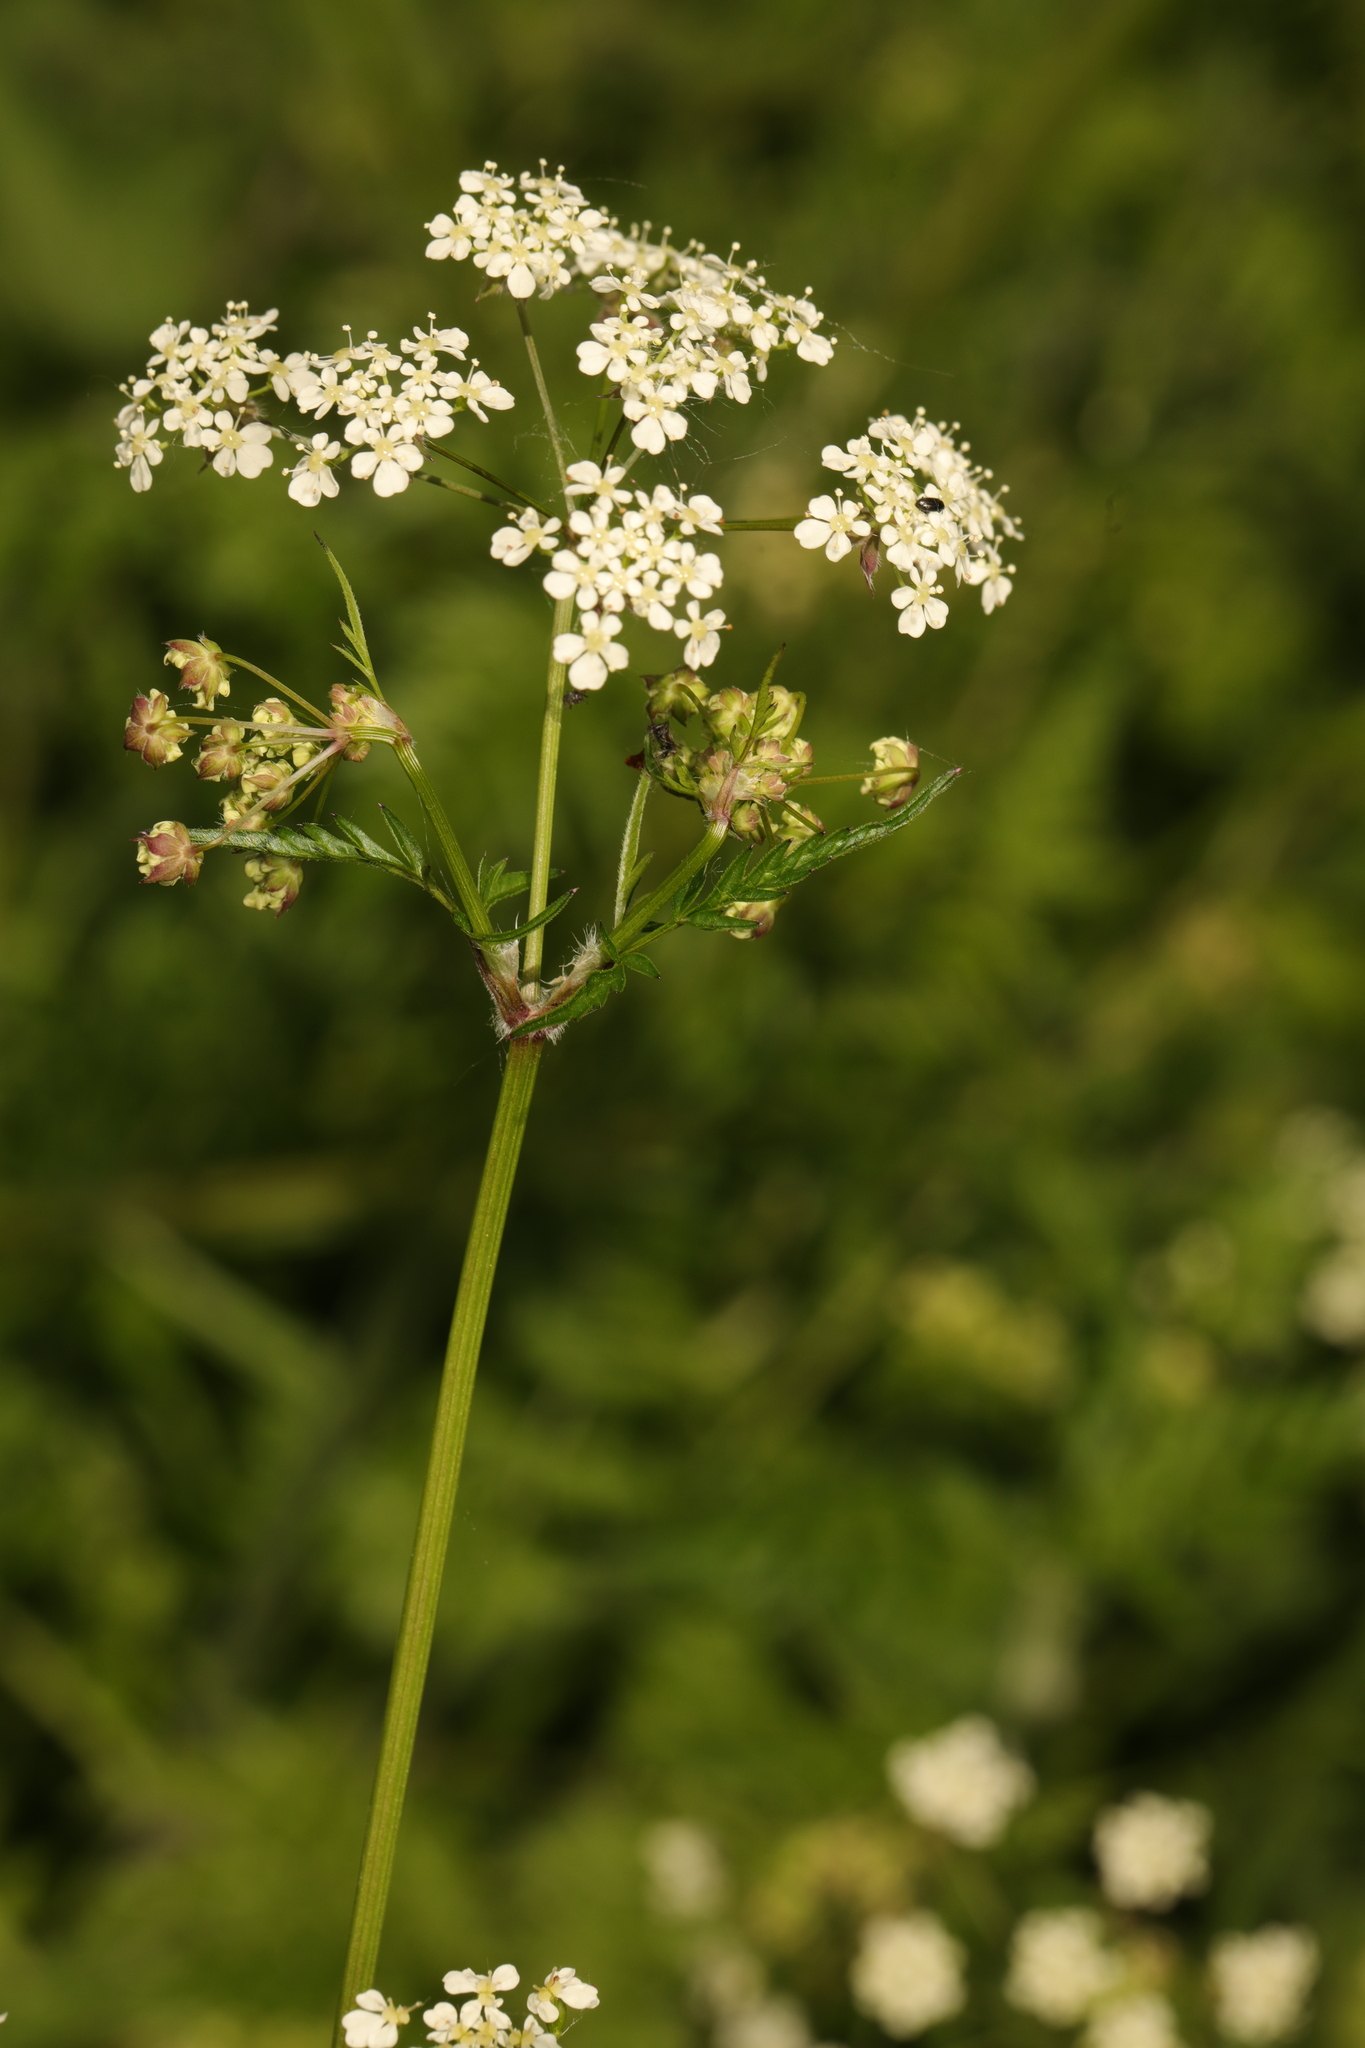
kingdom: Plantae
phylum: Tracheophyta
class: Magnoliopsida
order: Apiales
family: Apiaceae
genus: Anthriscus
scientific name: Anthriscus sylvestris
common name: Cow parsley
